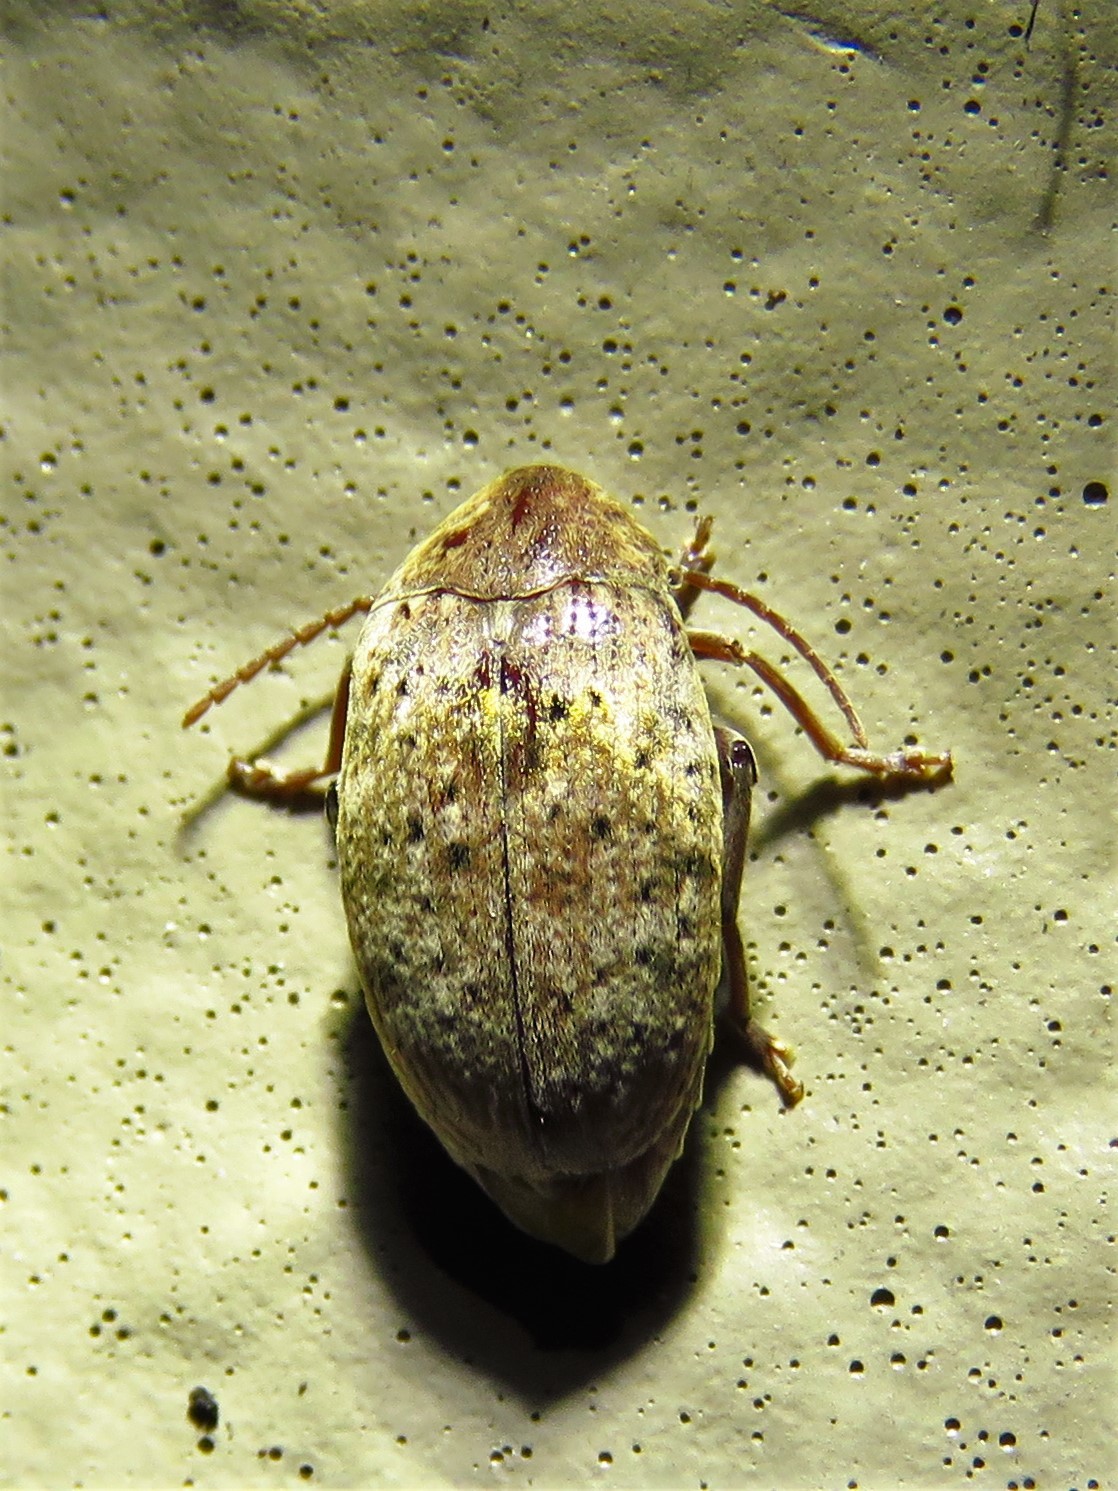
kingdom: Animalia
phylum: Arthropoda
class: Insecta
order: Coleoptera
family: Chrysomelidae
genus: Amblycerus
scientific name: Amblycerus robiniae
